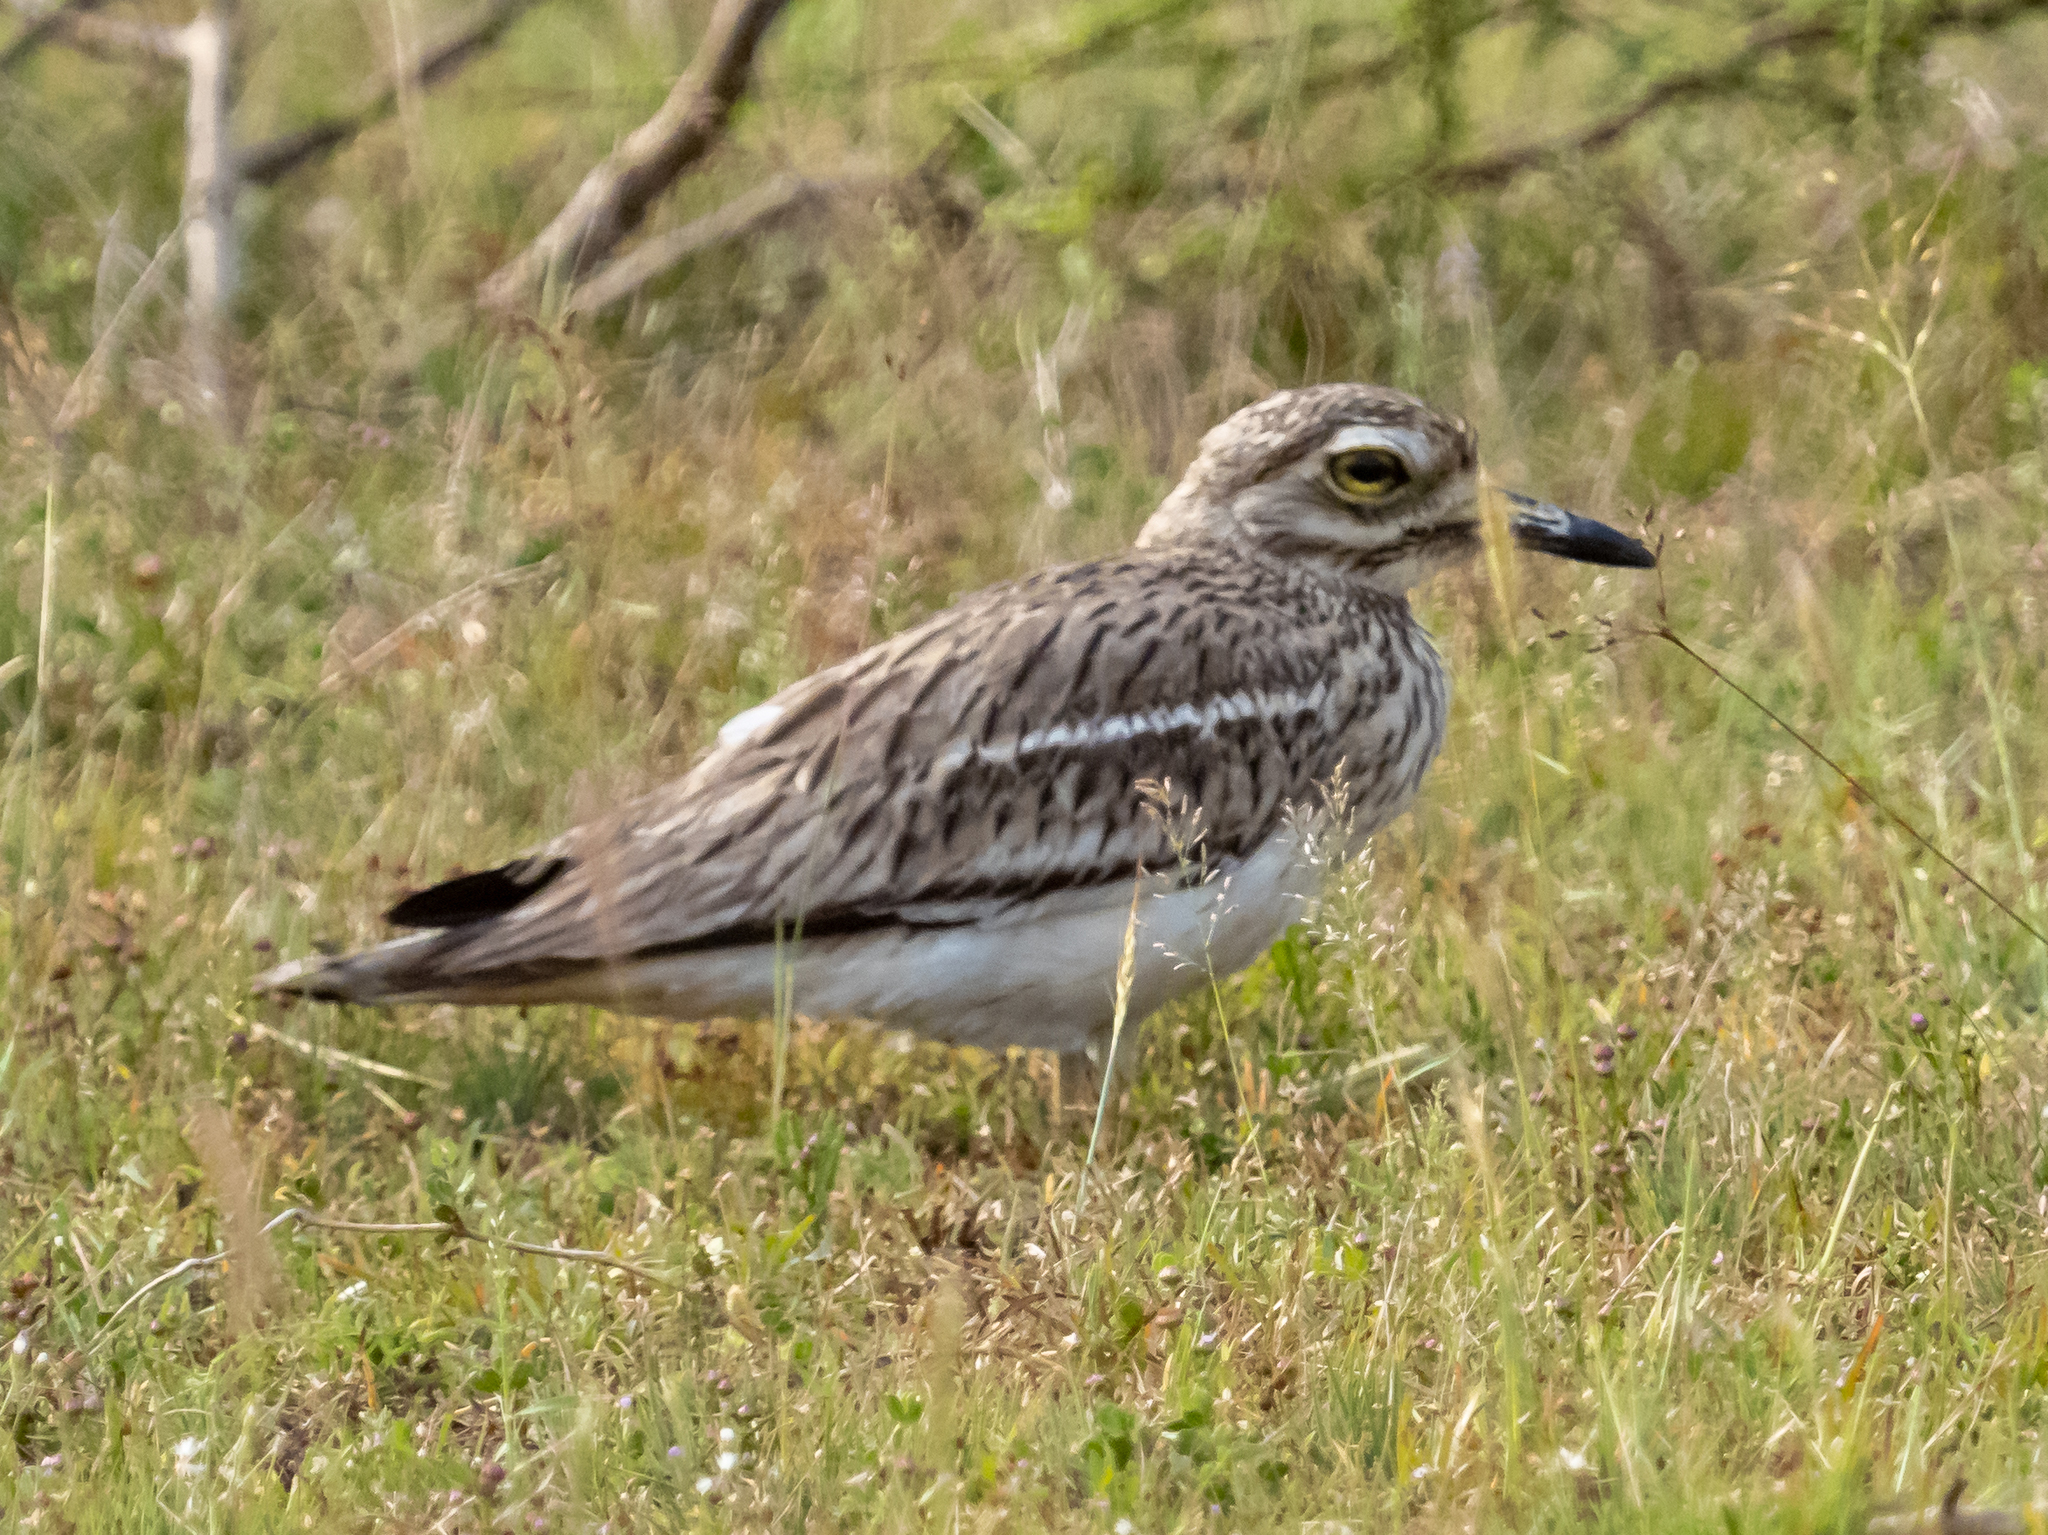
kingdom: Animalia
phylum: Chordata
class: Aves
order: Charadriiformes
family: Burhinidae
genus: Burhinus
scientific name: Burhinus indicus
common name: Indian thick-knee
